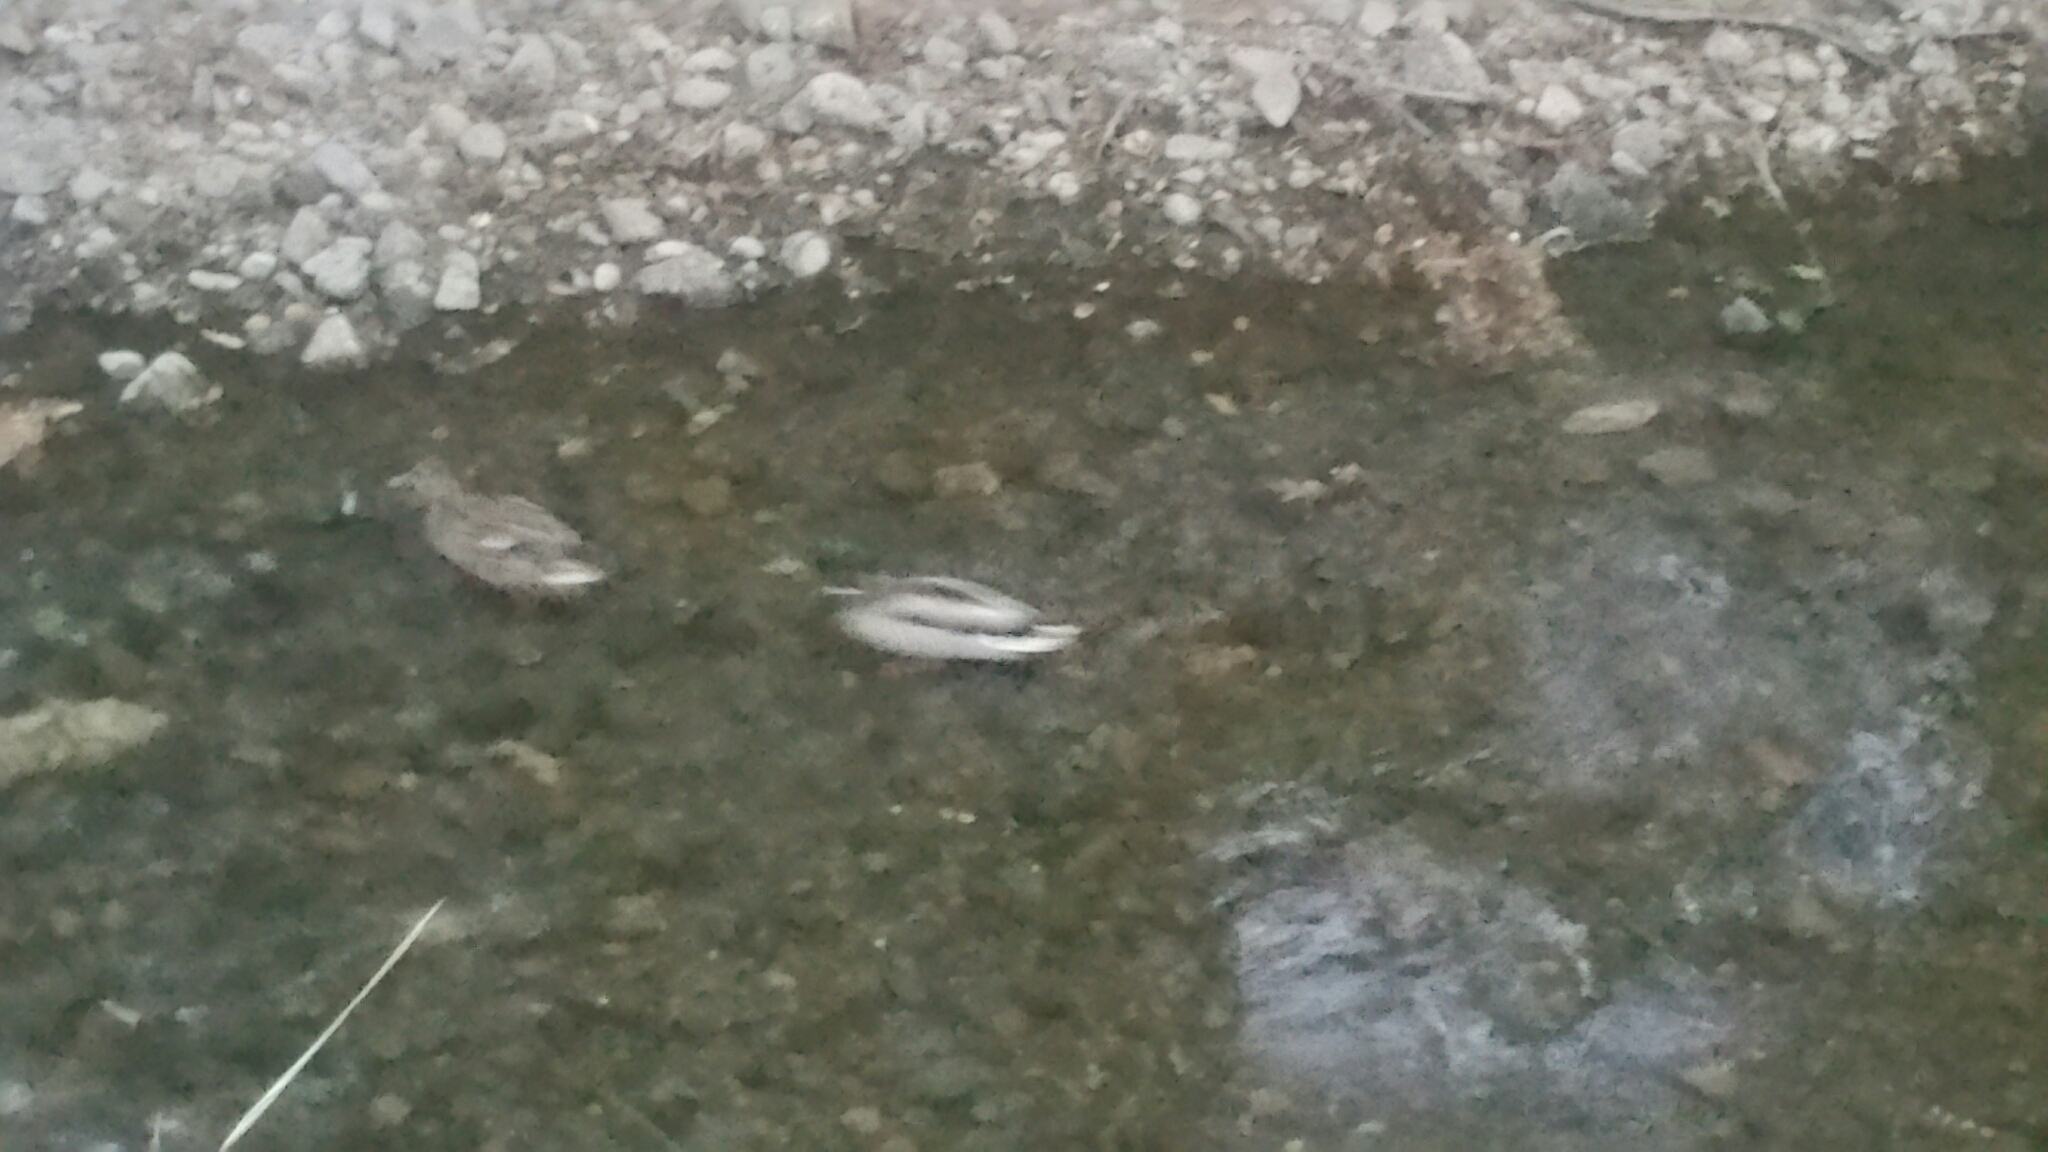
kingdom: Animalia
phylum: Chordata
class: Aves
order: Anseriformes
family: Anatidae
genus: Anas
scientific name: Anas platyrhynchos
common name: Mallard
